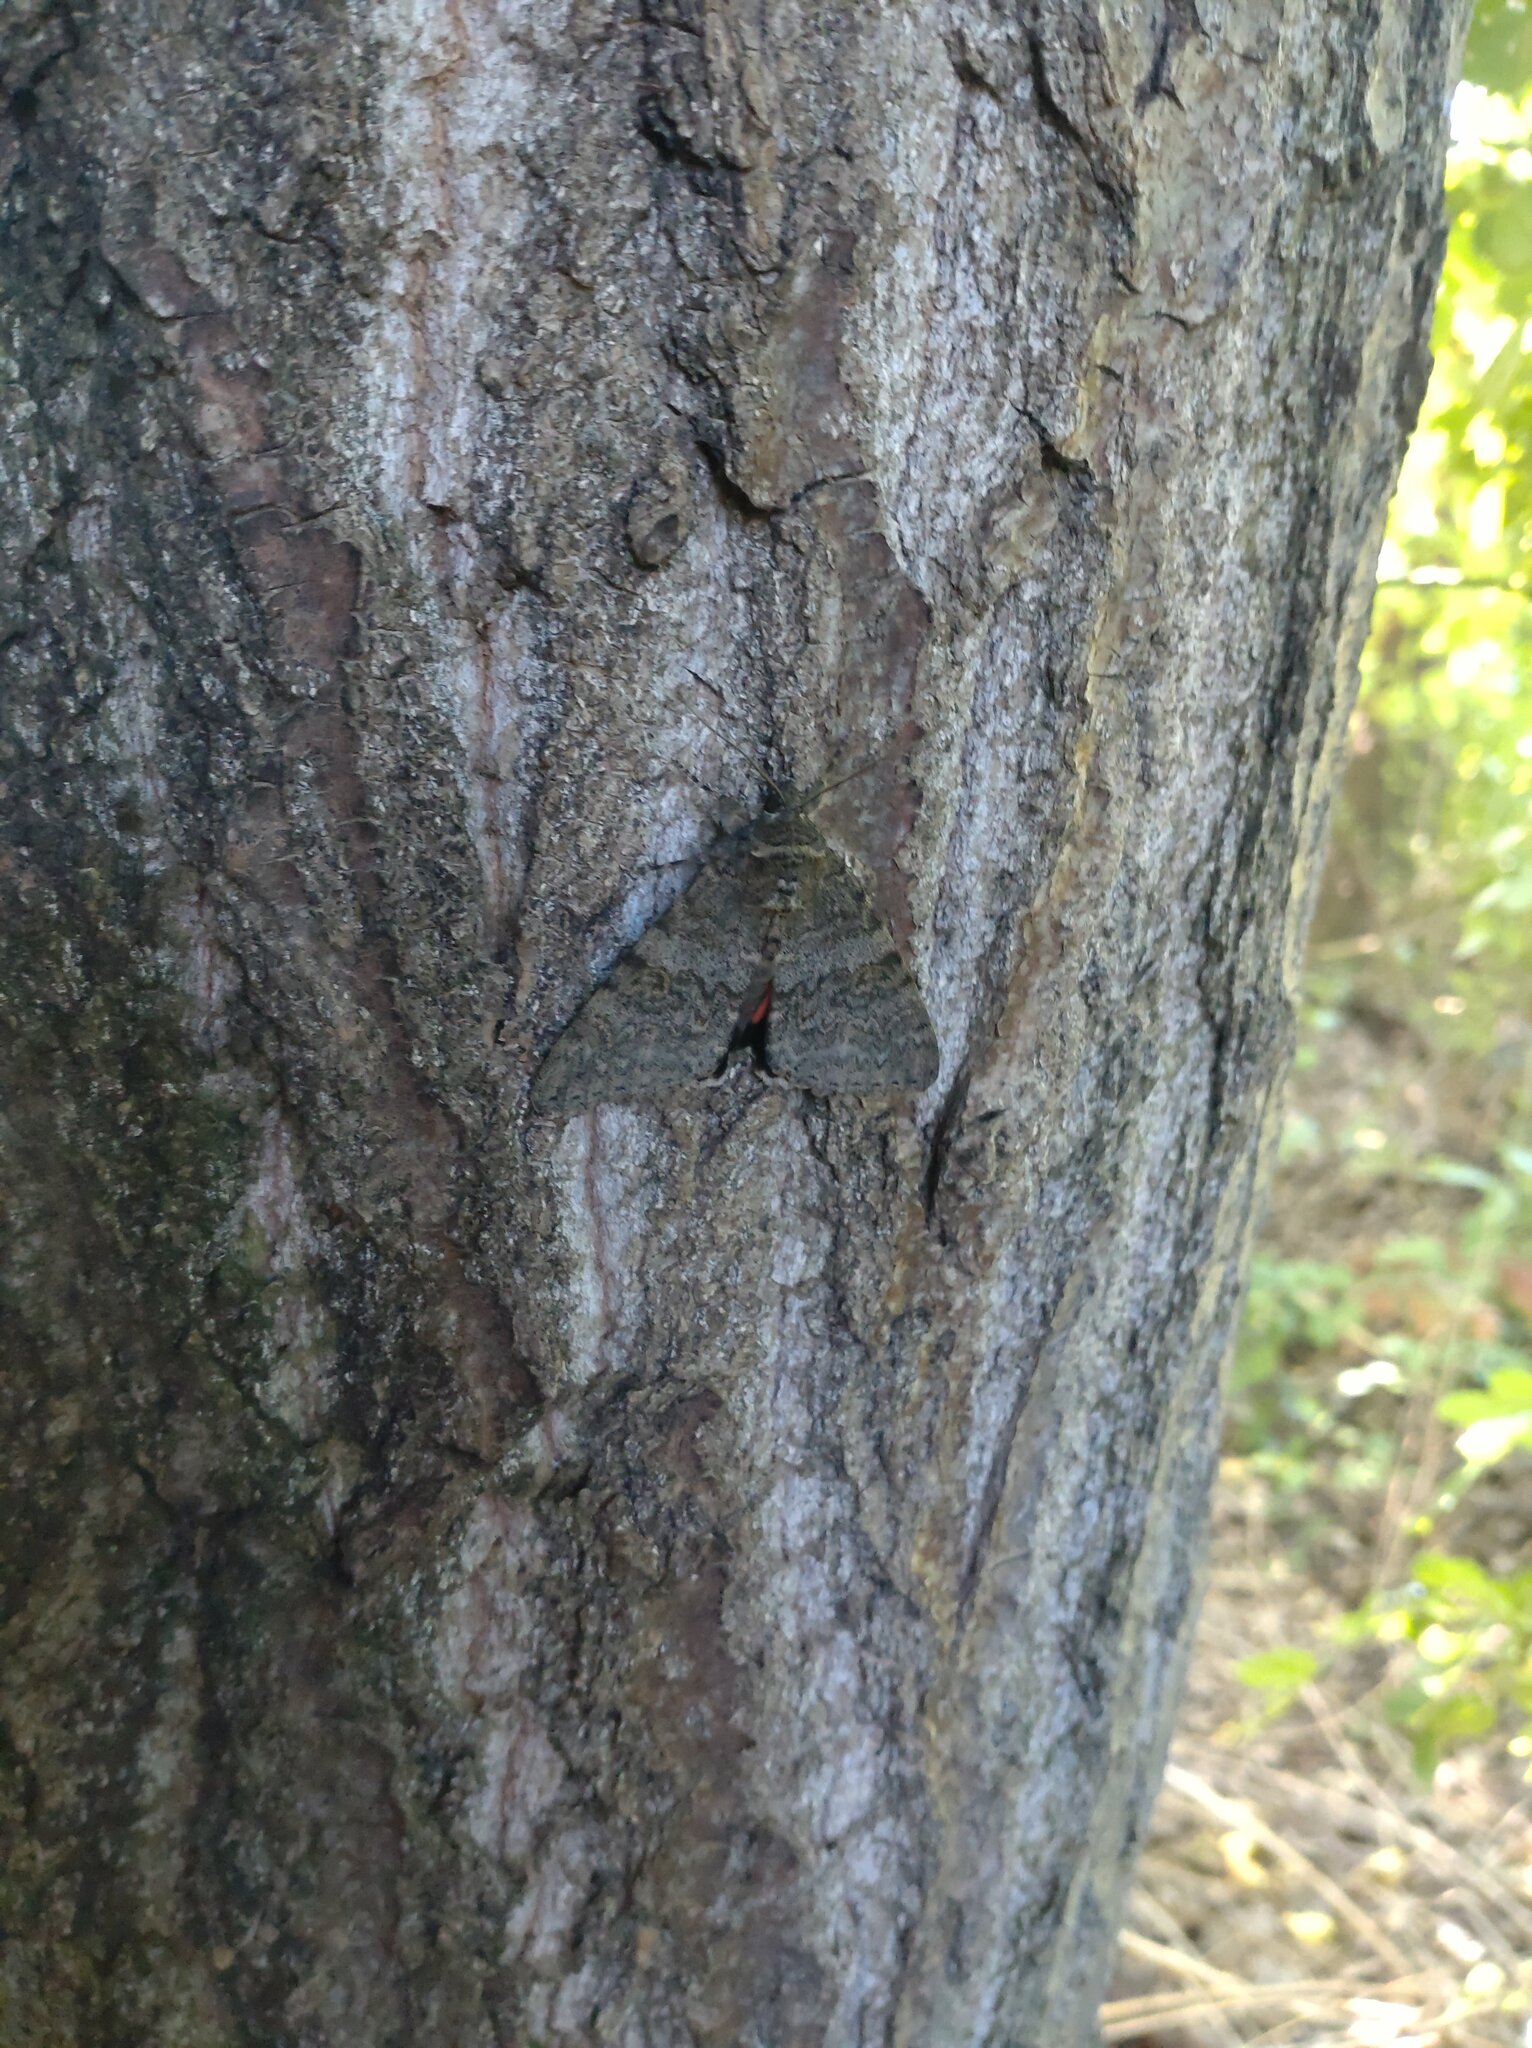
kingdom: Animalia
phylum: Arthropoda
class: Insecta
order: Lepidoptera
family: Erebidae
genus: Catocala
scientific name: Catocala nupta
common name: Red underwing
